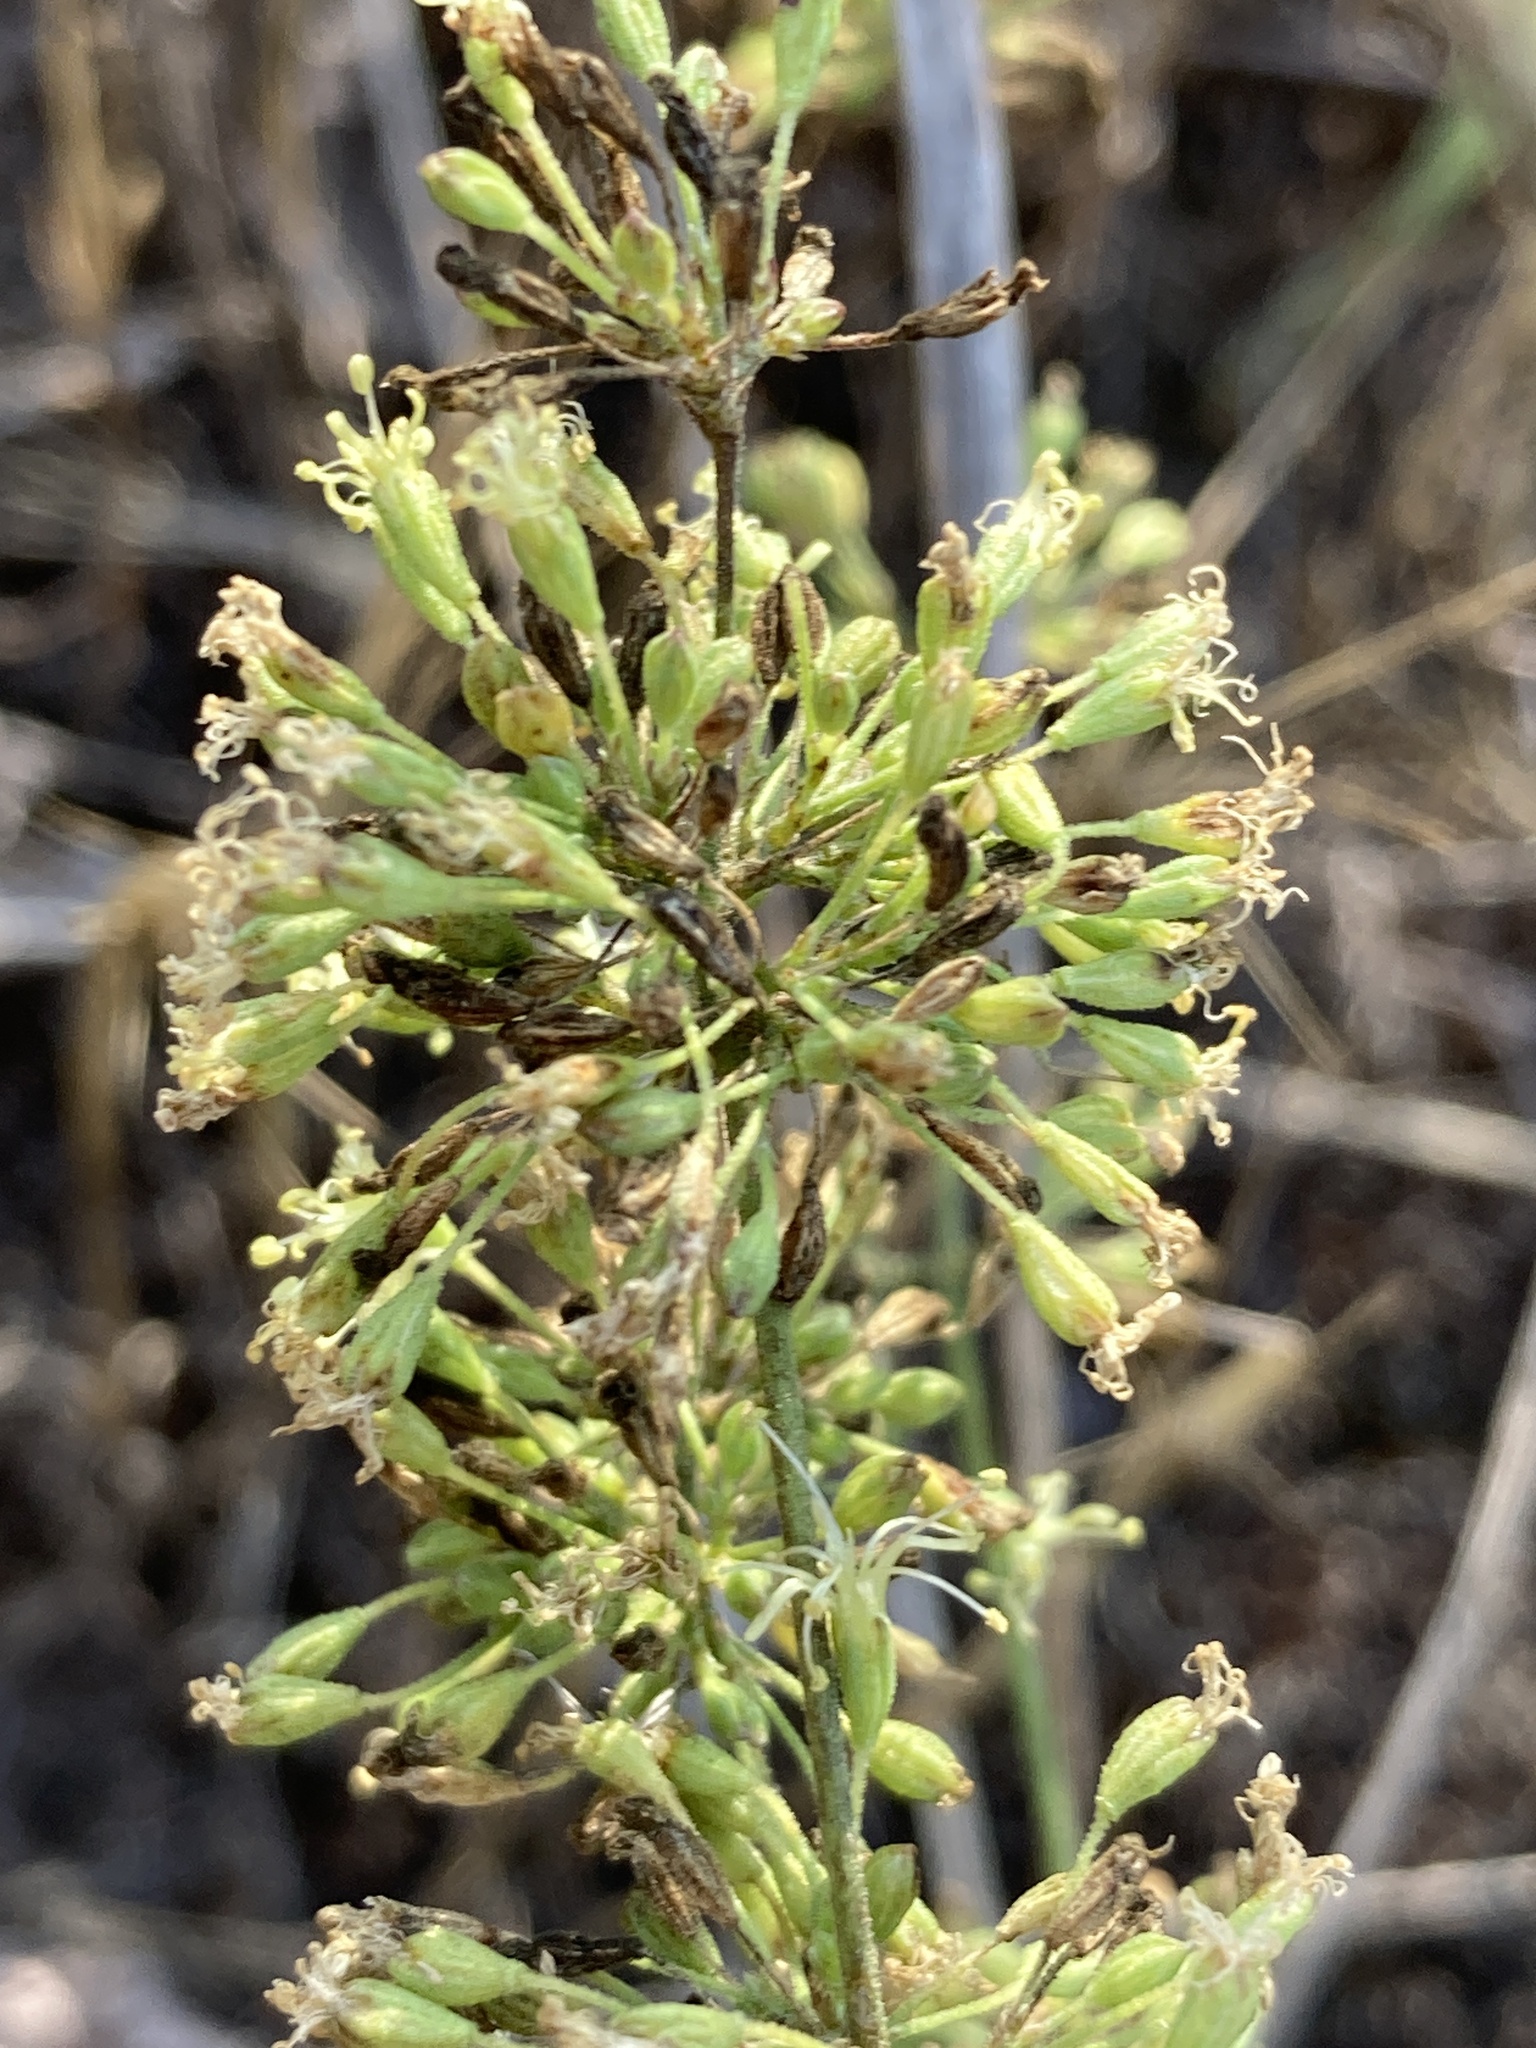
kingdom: Plantae
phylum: Tracheophyta
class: Magnoliopsida
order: Caryophyllales
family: Caryophyllaceae
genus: Silene
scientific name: Silene borysthenica
